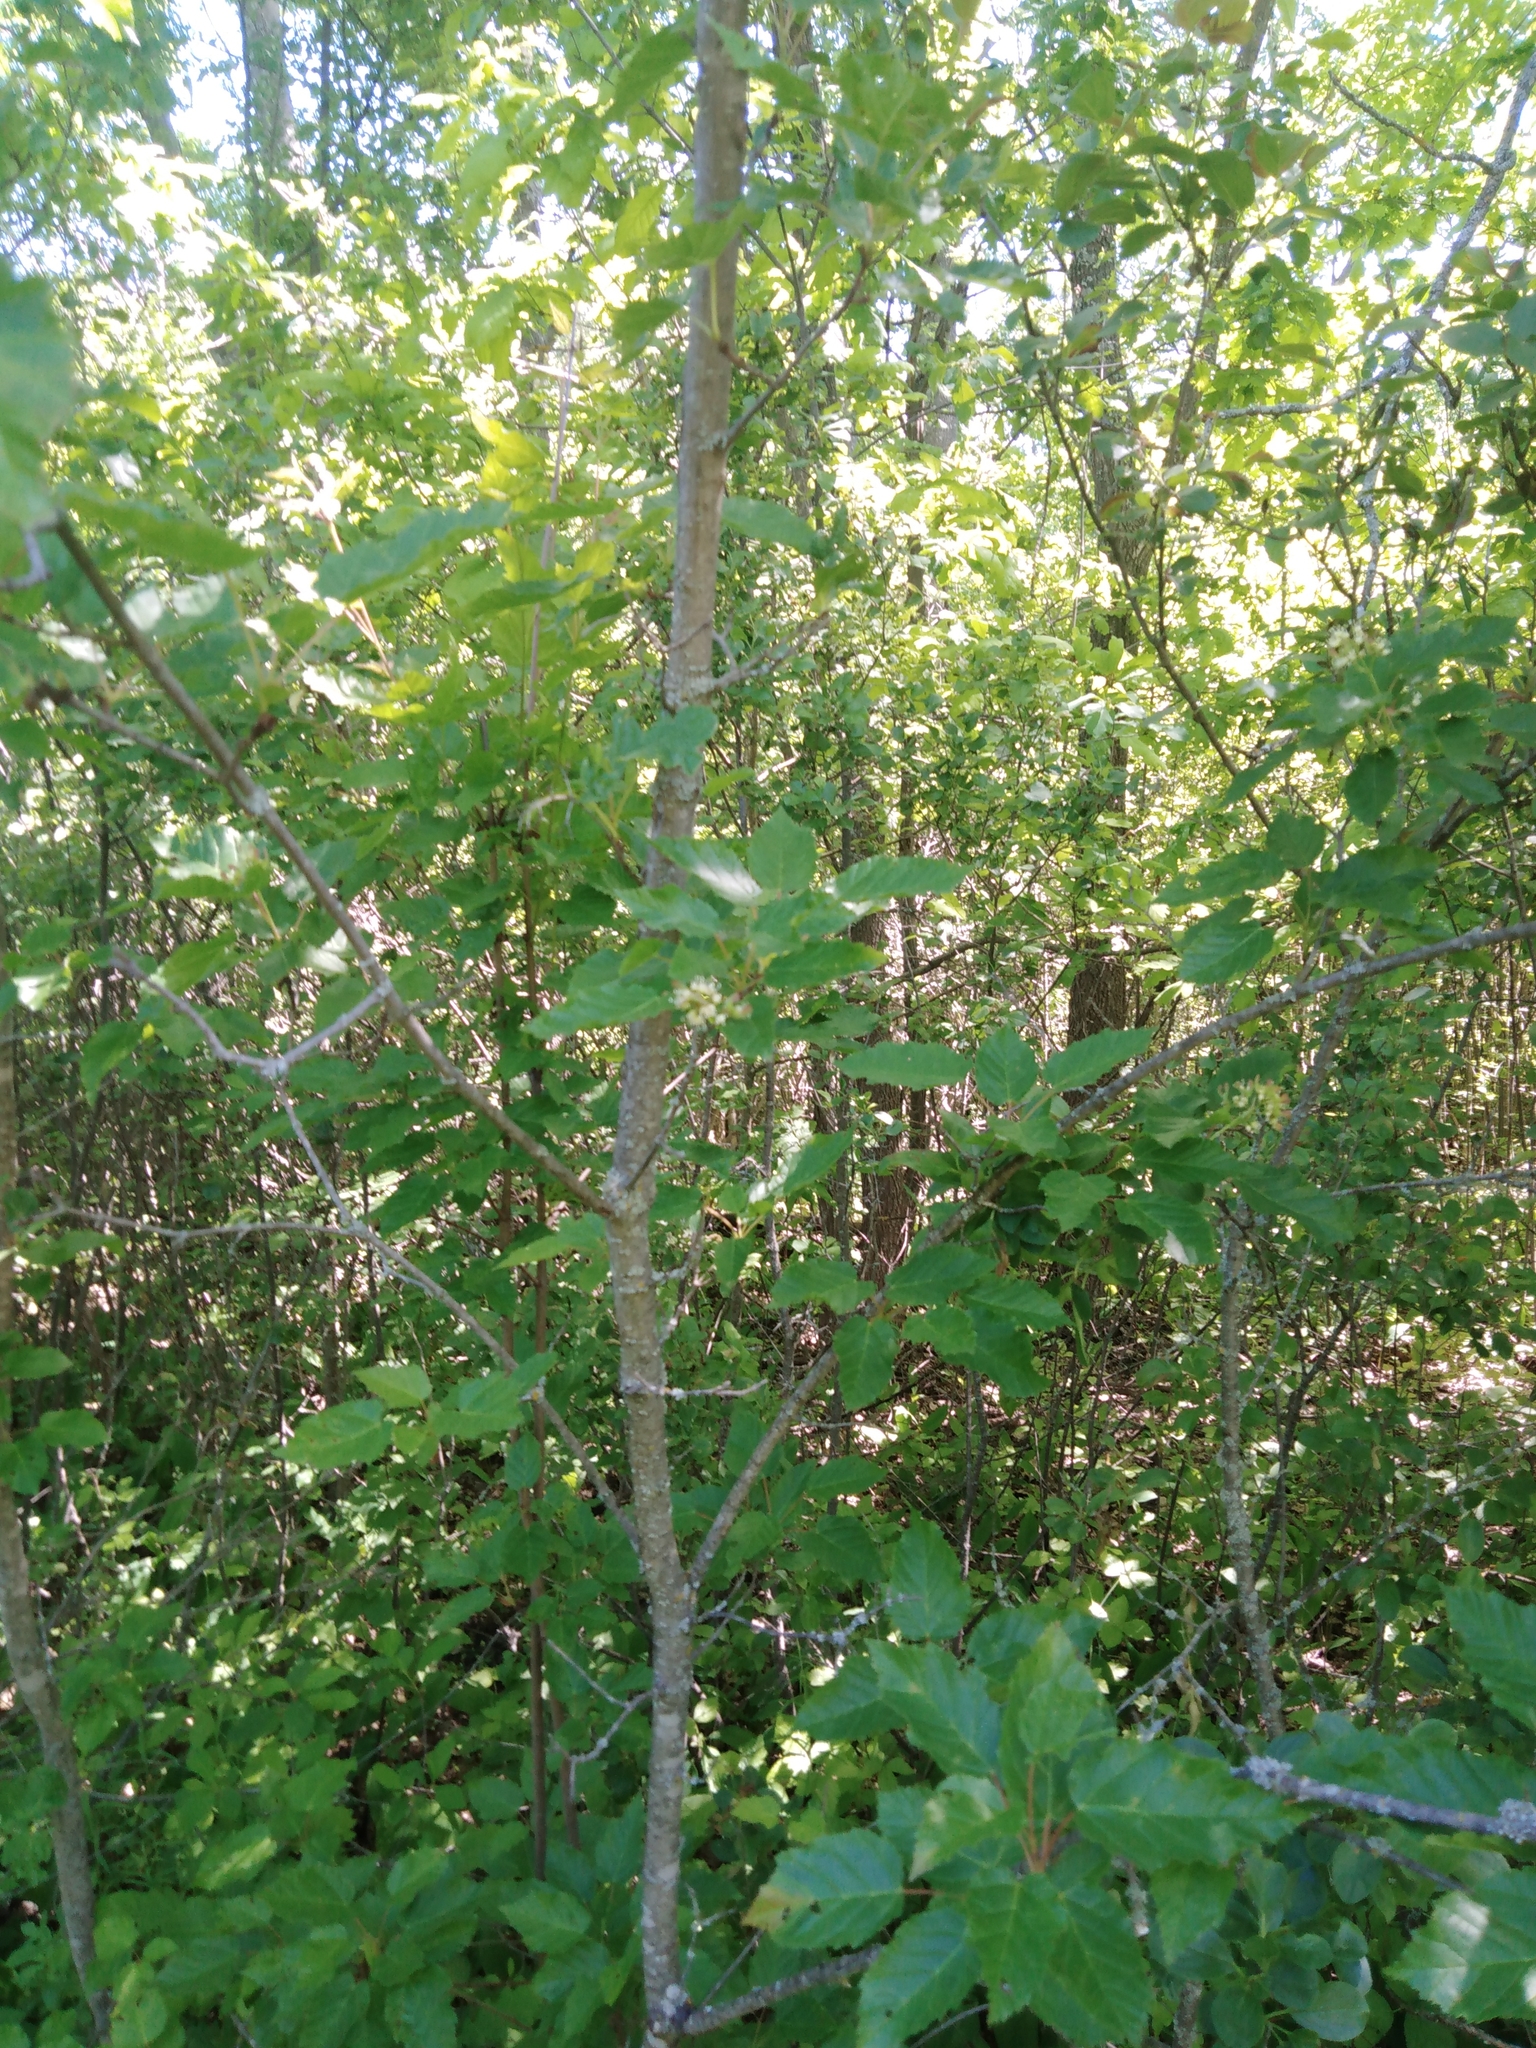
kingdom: Plantae
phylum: Tracheophyta
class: Magnoliopsida
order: Sapindales
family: Sapindaceae
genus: Acer
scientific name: Acer tataricum
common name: Tartar maple
